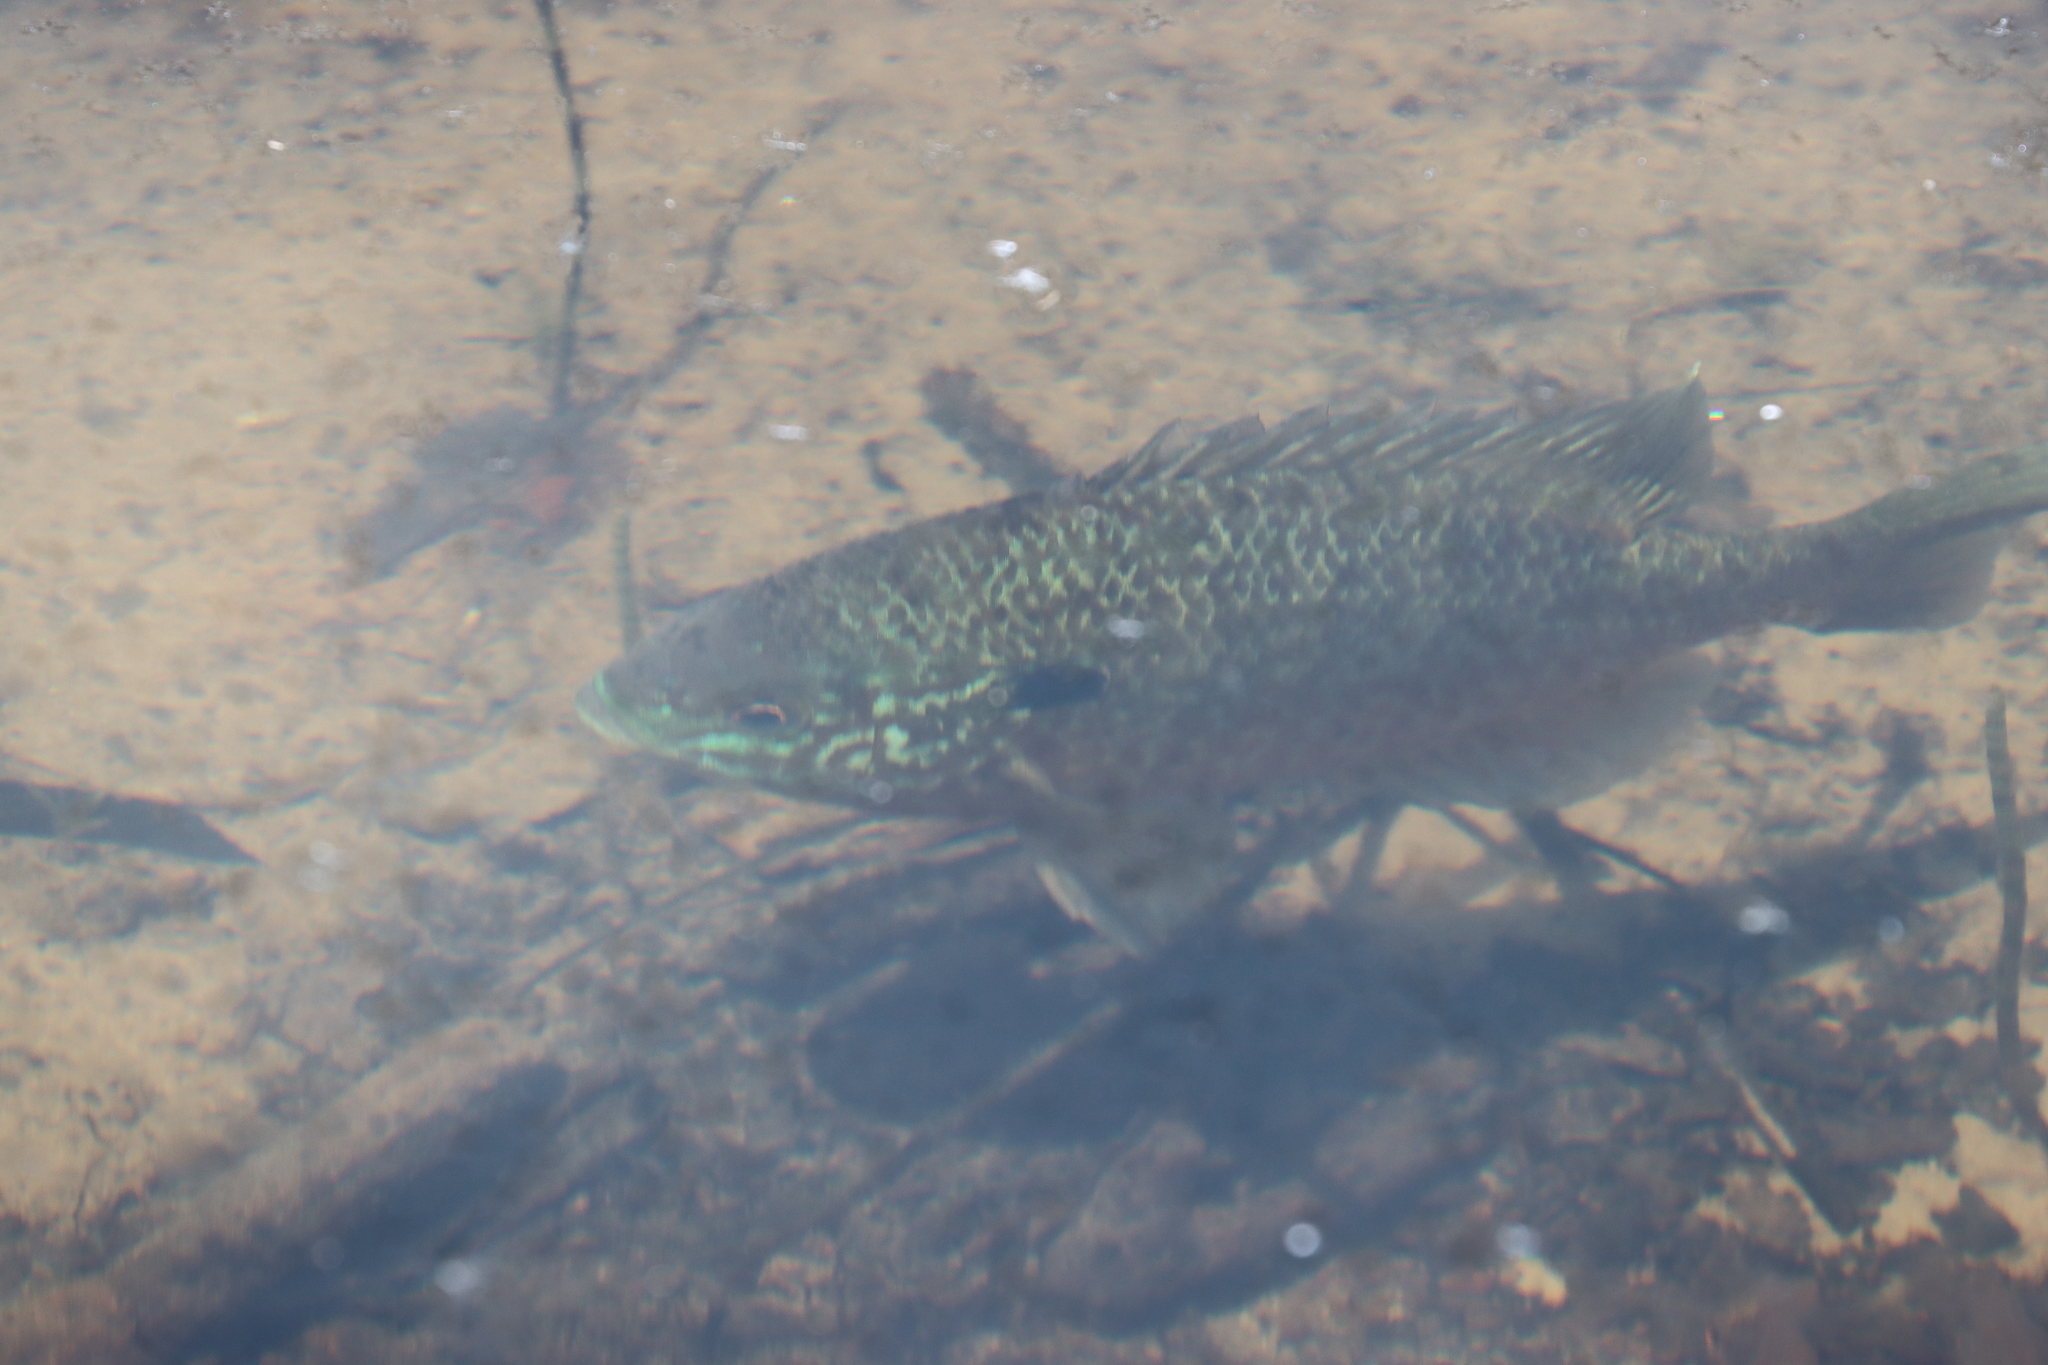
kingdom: Animalia
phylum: Chordata
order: Perciformes
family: Centrarchidae
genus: Lepomis
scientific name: Lepomis gibbosus
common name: Pumpkinseed
